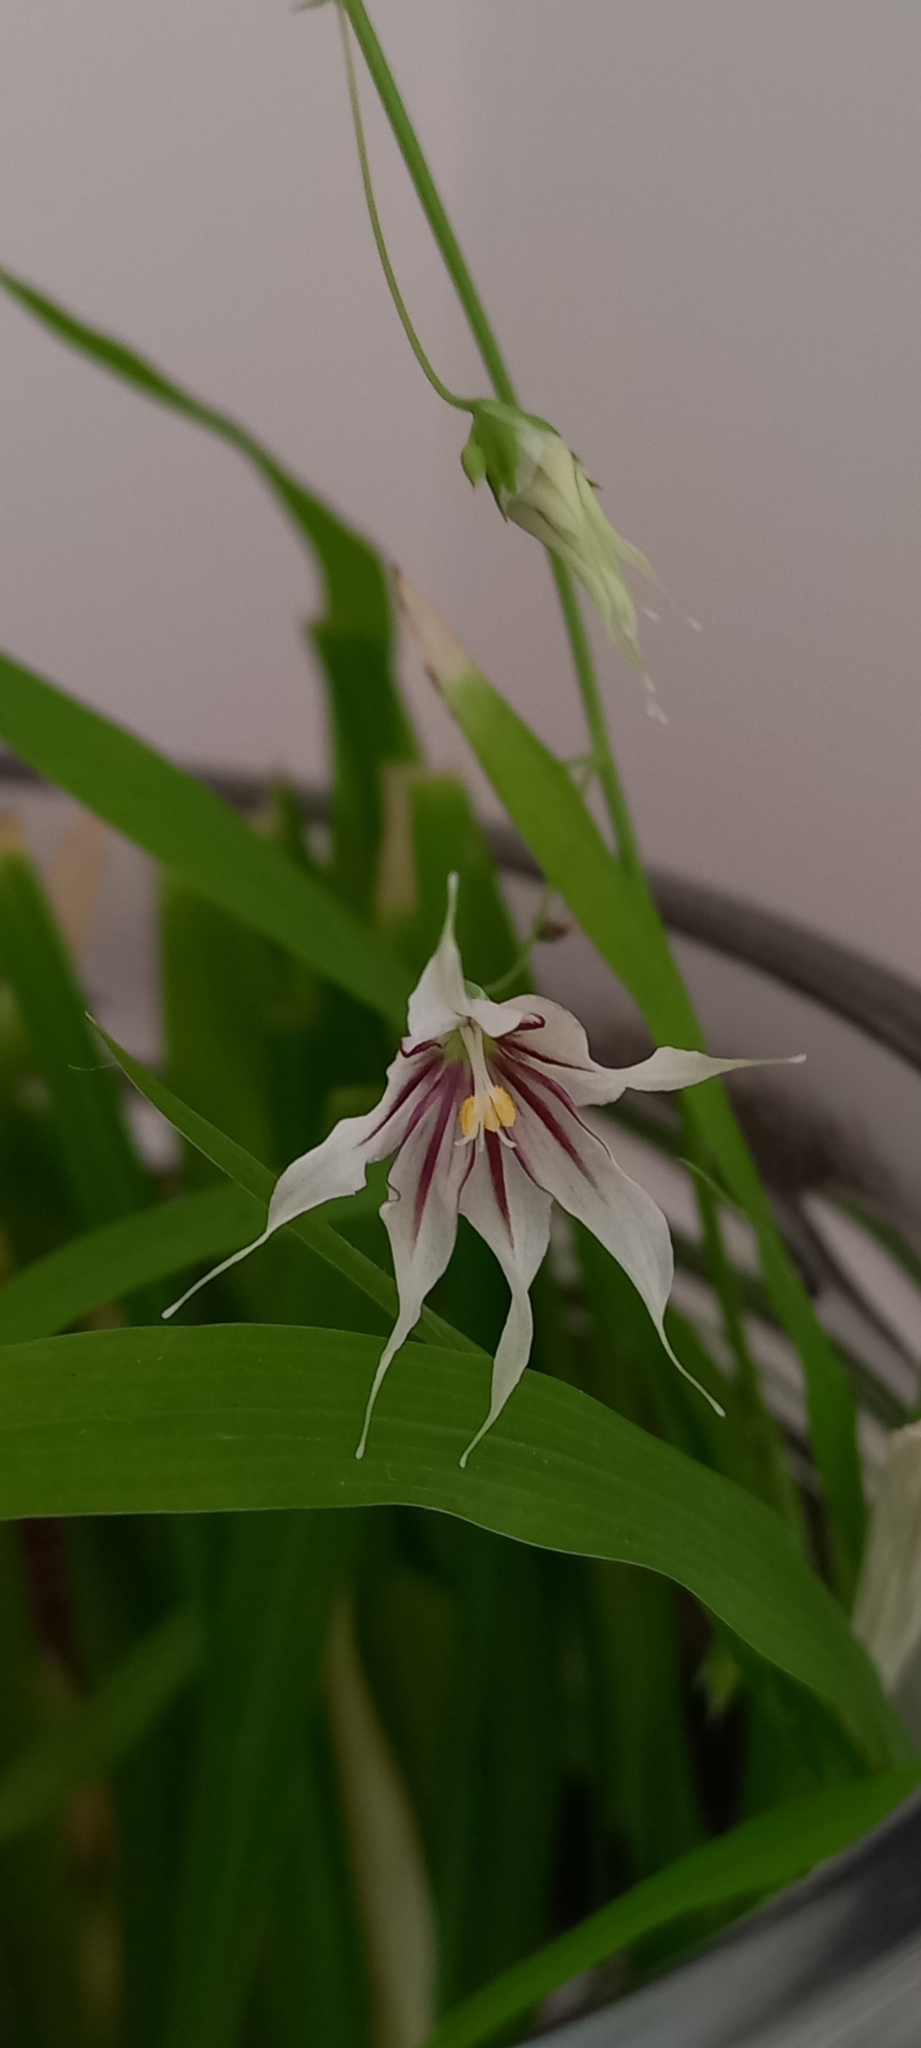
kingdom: Plantae
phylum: Tracheophyta
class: Liliopsida
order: Asparagales
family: Iridaceae
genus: Melasphaerula
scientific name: Melasphaerula graminea
